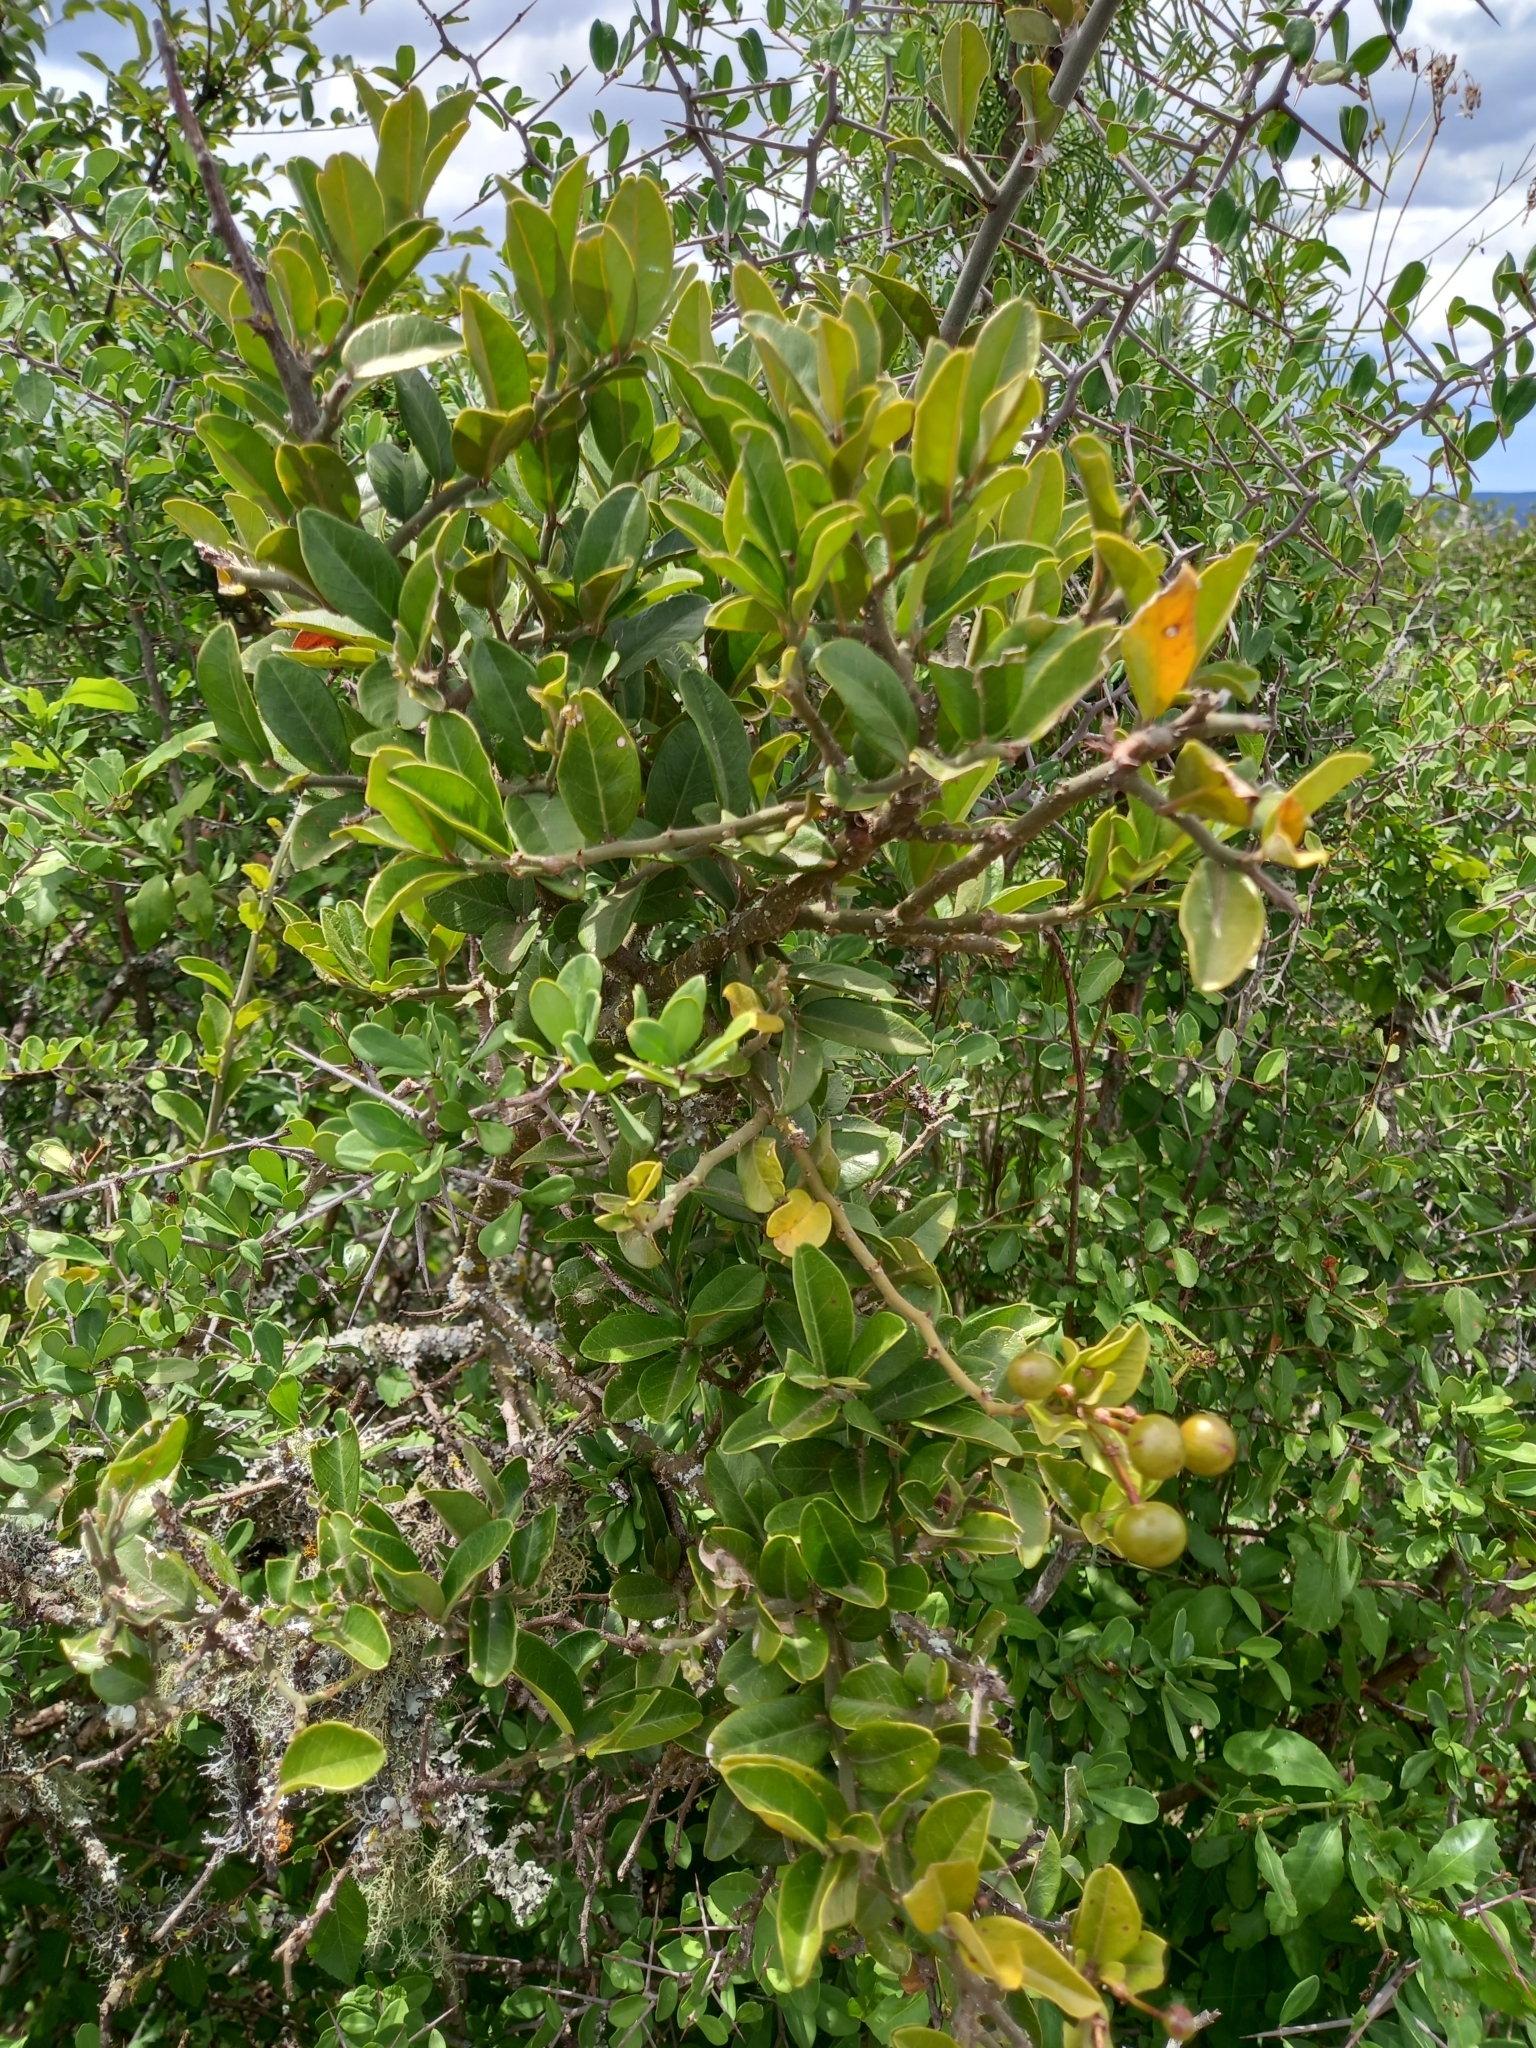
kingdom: Plantae
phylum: Tracheophyta
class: Magnoliopsida
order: Brassicales
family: Capparaceae
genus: Capparis
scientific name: Capparis sepiaria
